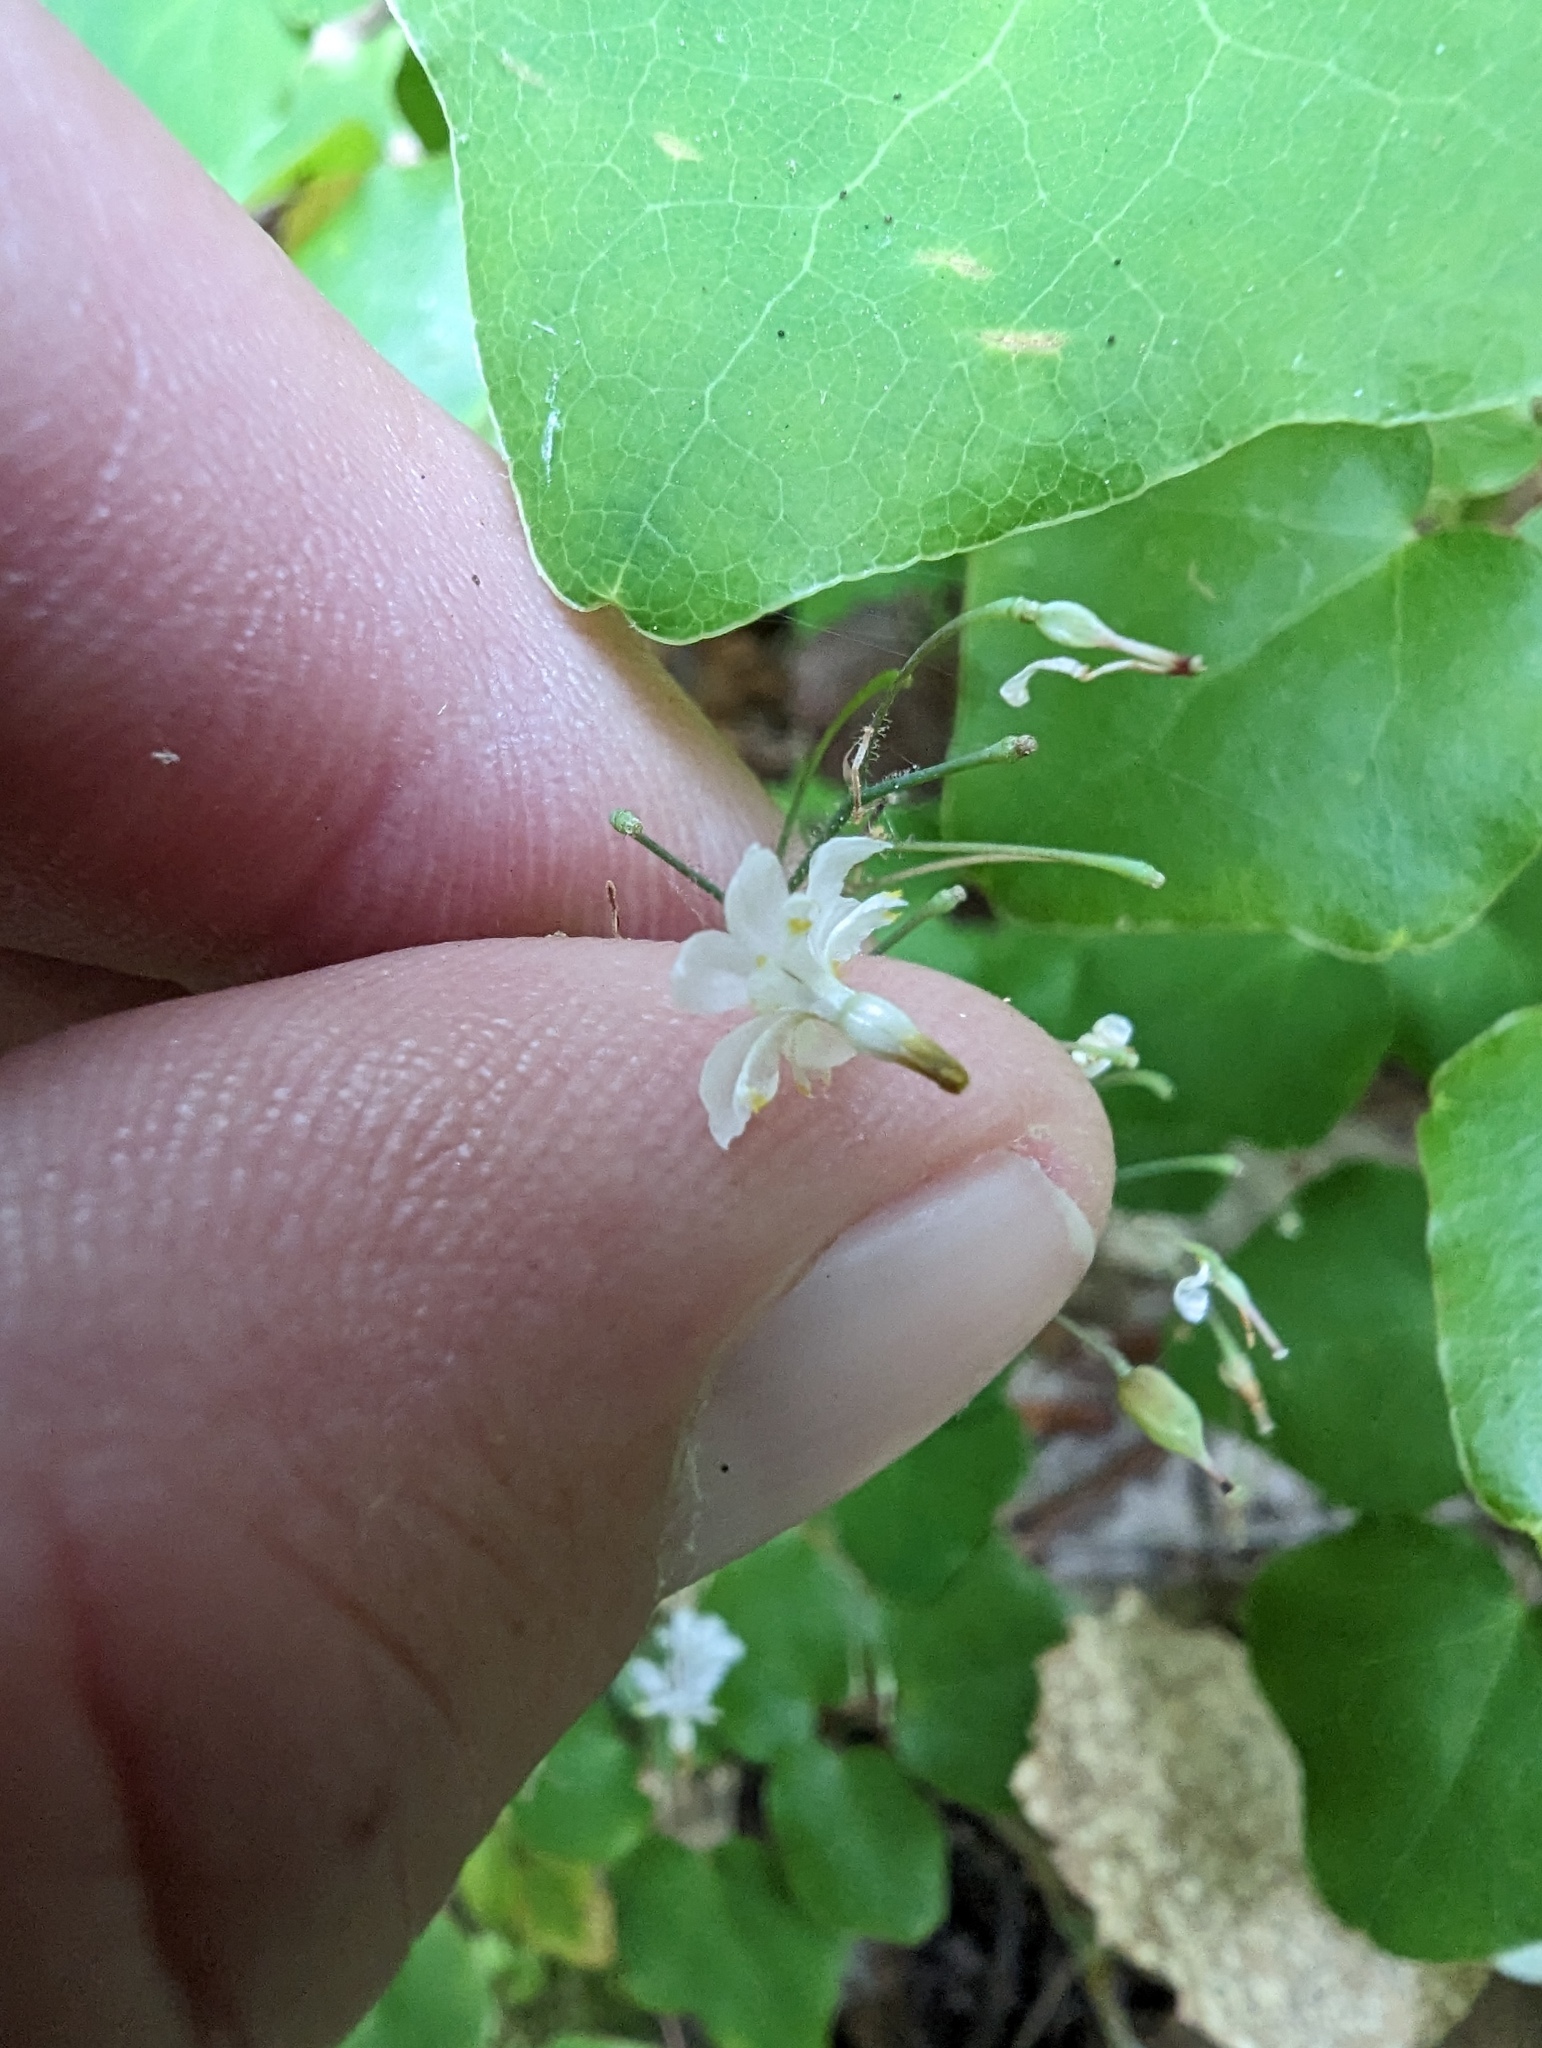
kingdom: Plantae
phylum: Tracheophyta
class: Magnoliopsida
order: Ranunculales
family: Berberidaceae
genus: Vancouveria
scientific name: Vancouveria planipetala
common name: Redwood-ivy
